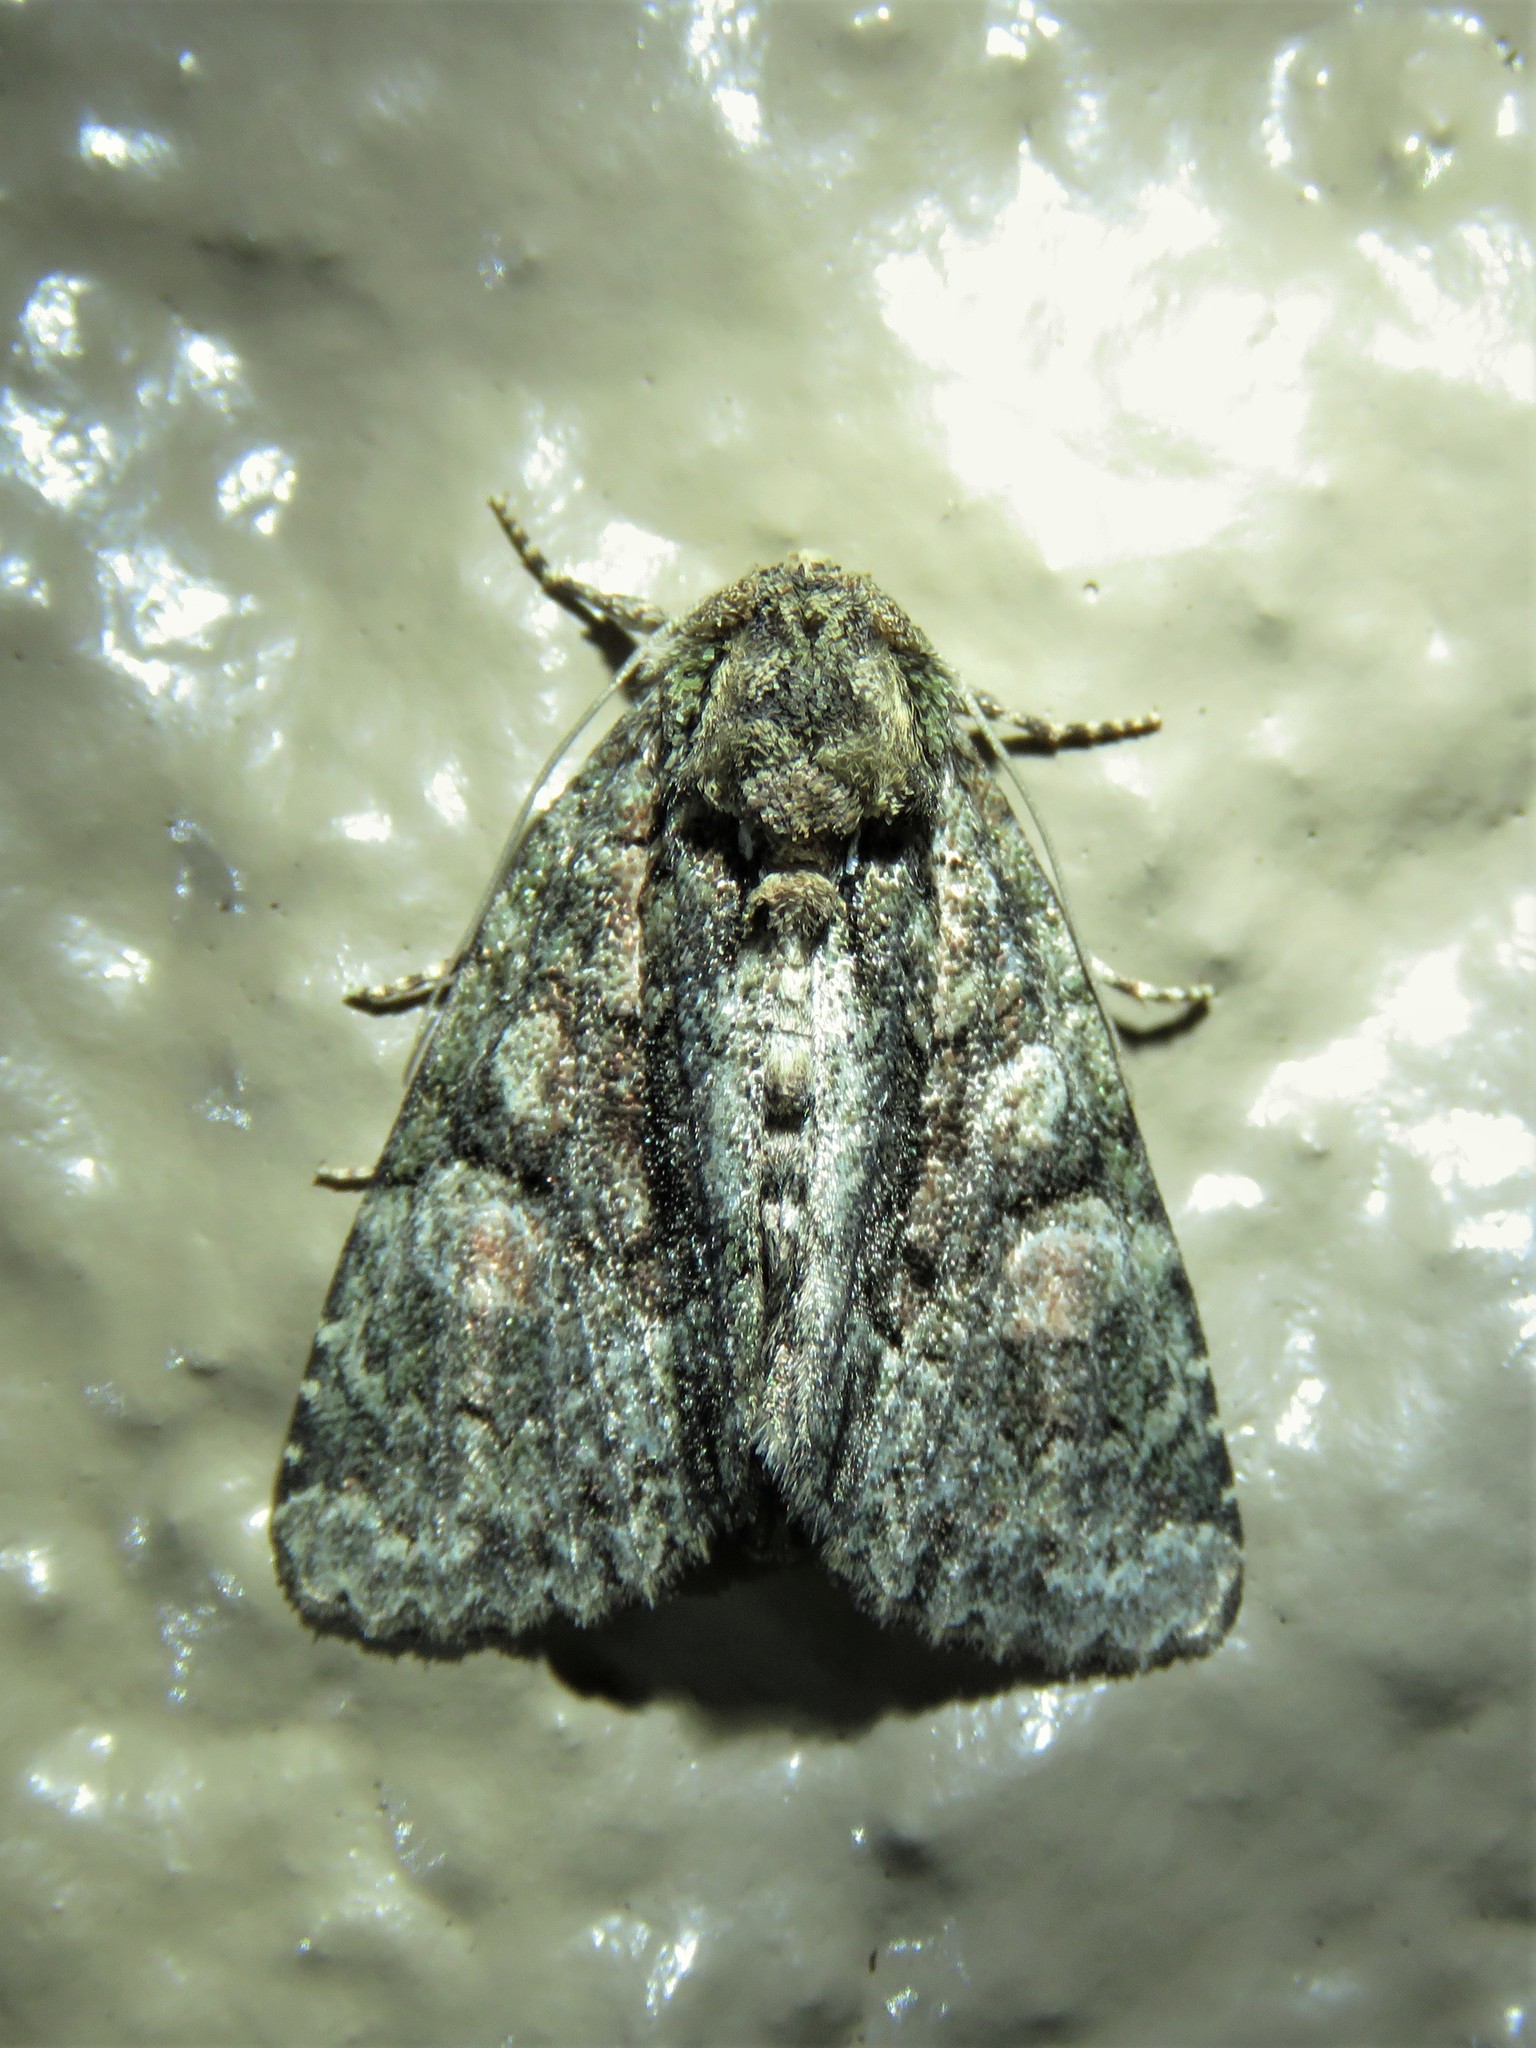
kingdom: Animalia
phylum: Arthropoda
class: Insecta
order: Lepidoptera
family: Noctuidae
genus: Phosphila
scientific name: Phosphila miselioides
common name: Spotted phosphila moth
